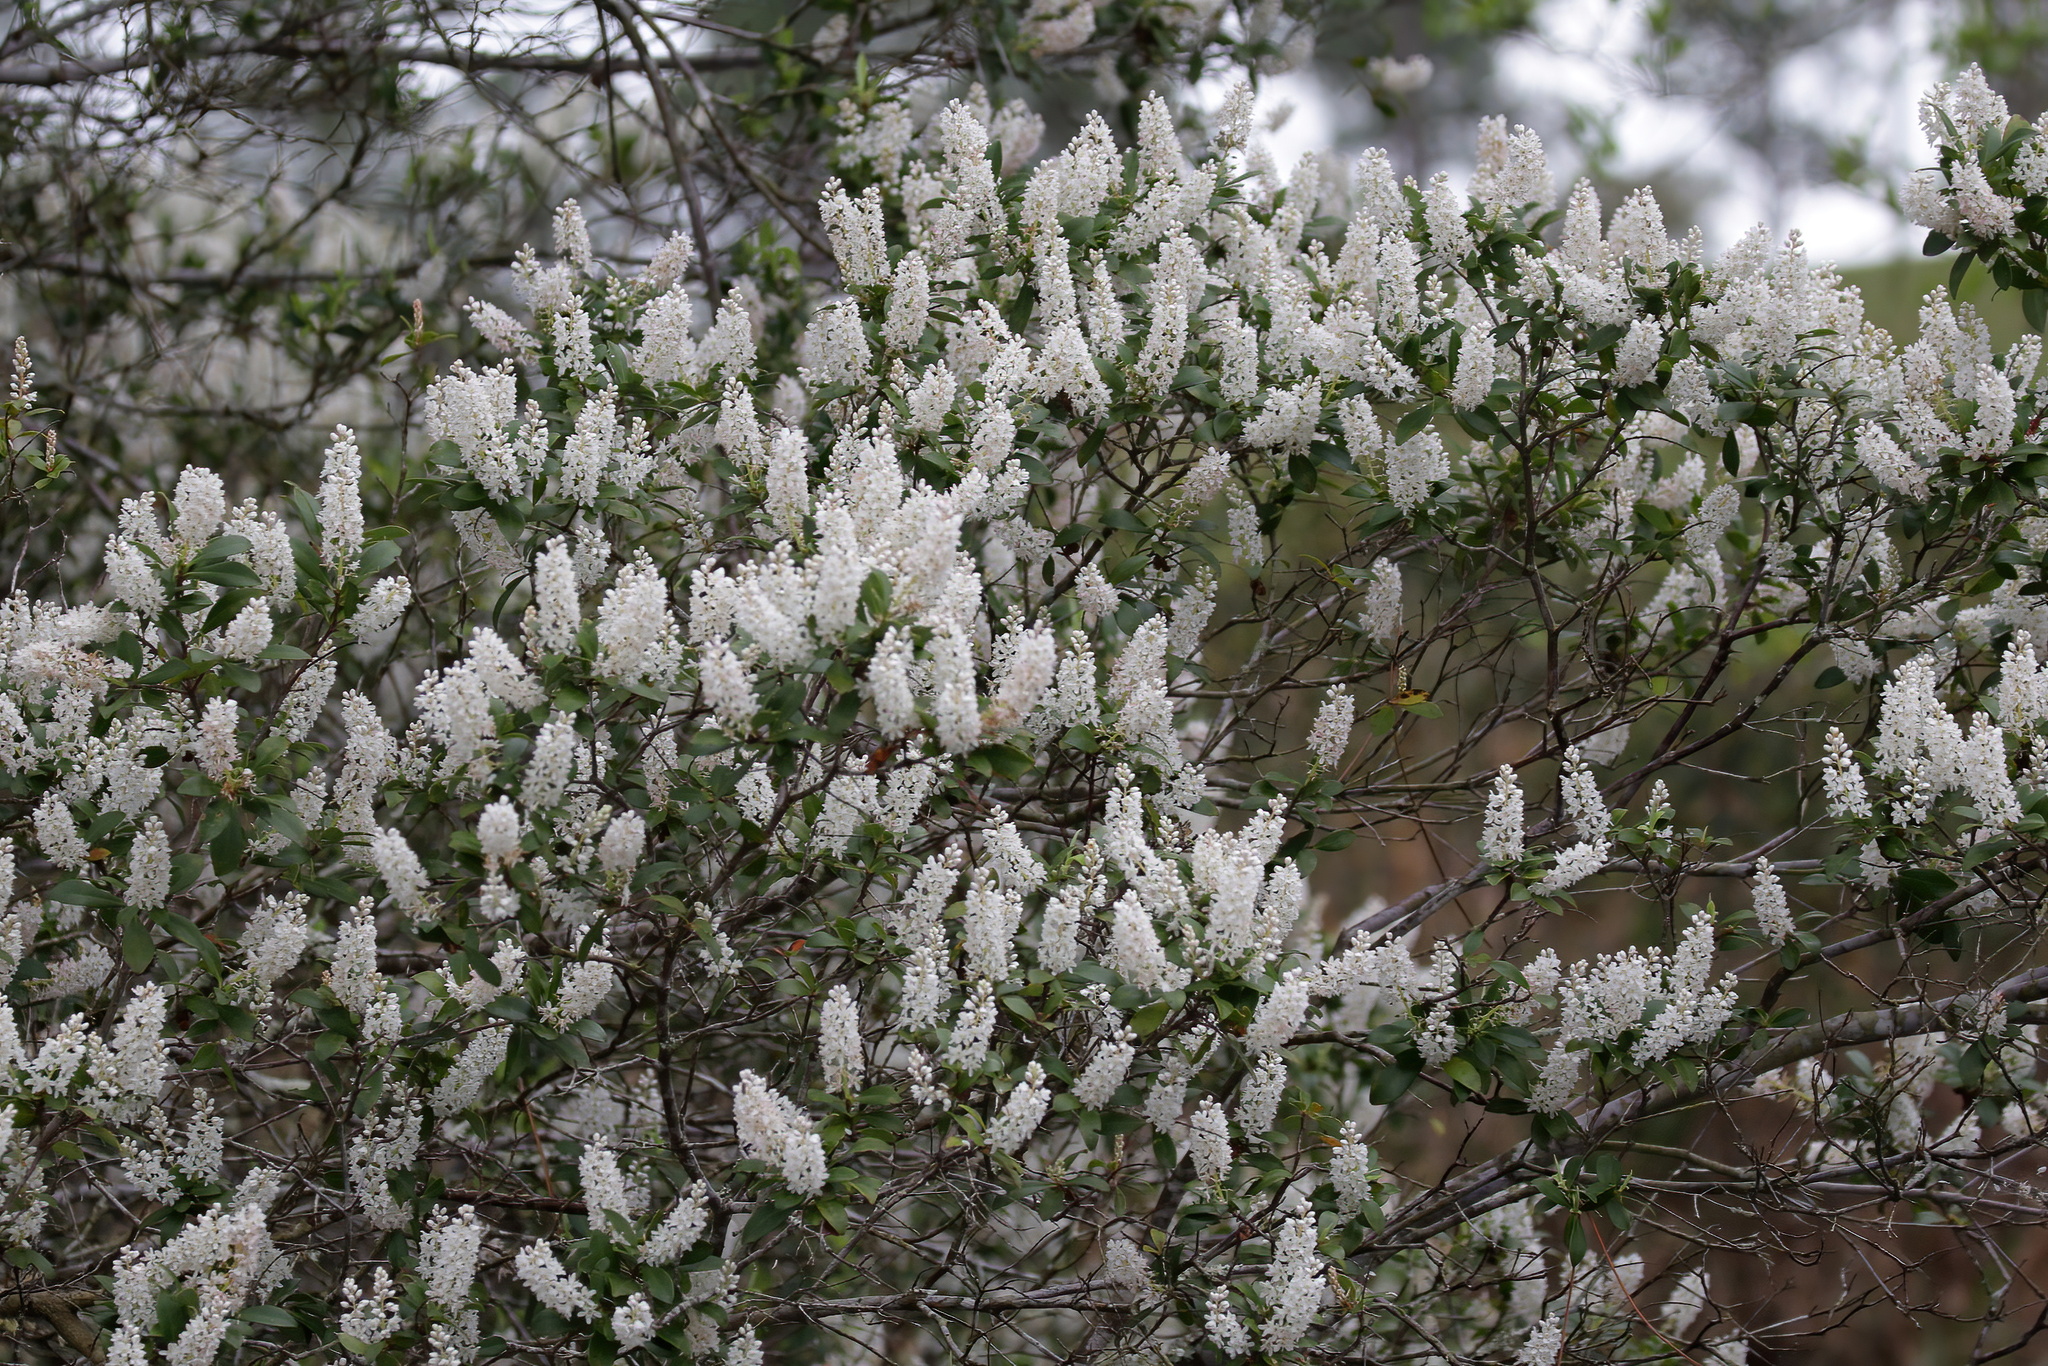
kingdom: Plantae
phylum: Tracheophyta
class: Magnoliopsida
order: Ericales
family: Cyrillaceae
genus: Cliftonia
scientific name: Cliftonia monophylla
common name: Titi
